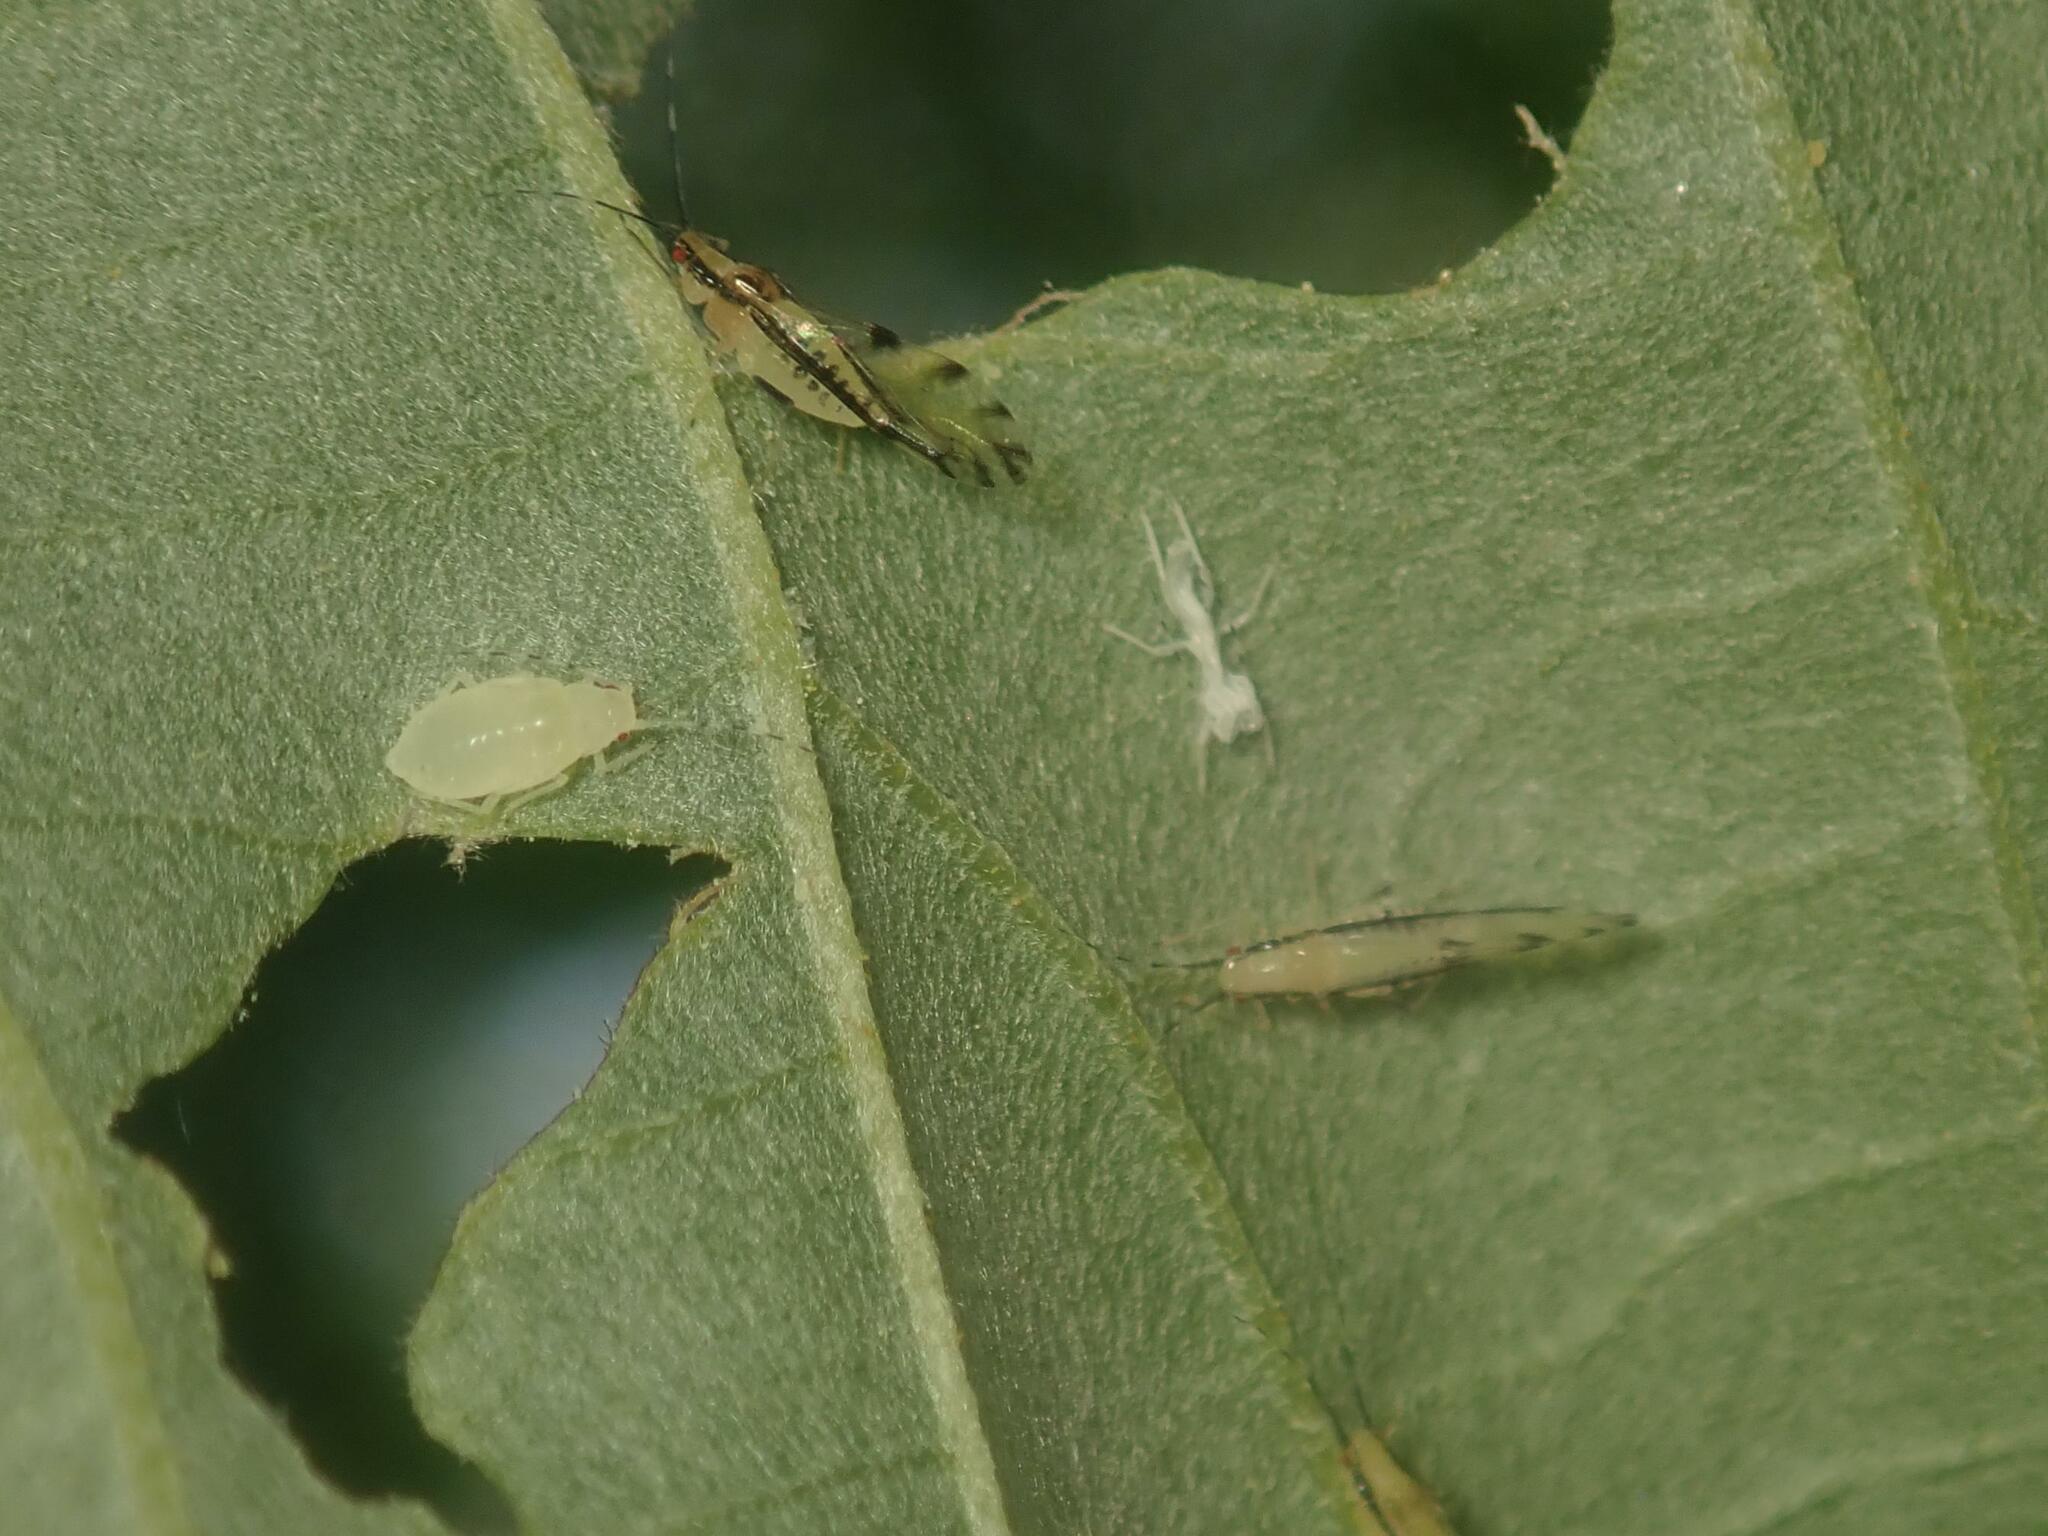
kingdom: Animalia
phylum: Arthropoda
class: Insecta
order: Hemiptera
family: Aphididae
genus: Eucallipterus
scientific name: Eucallipterus tiliae
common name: Aphid
